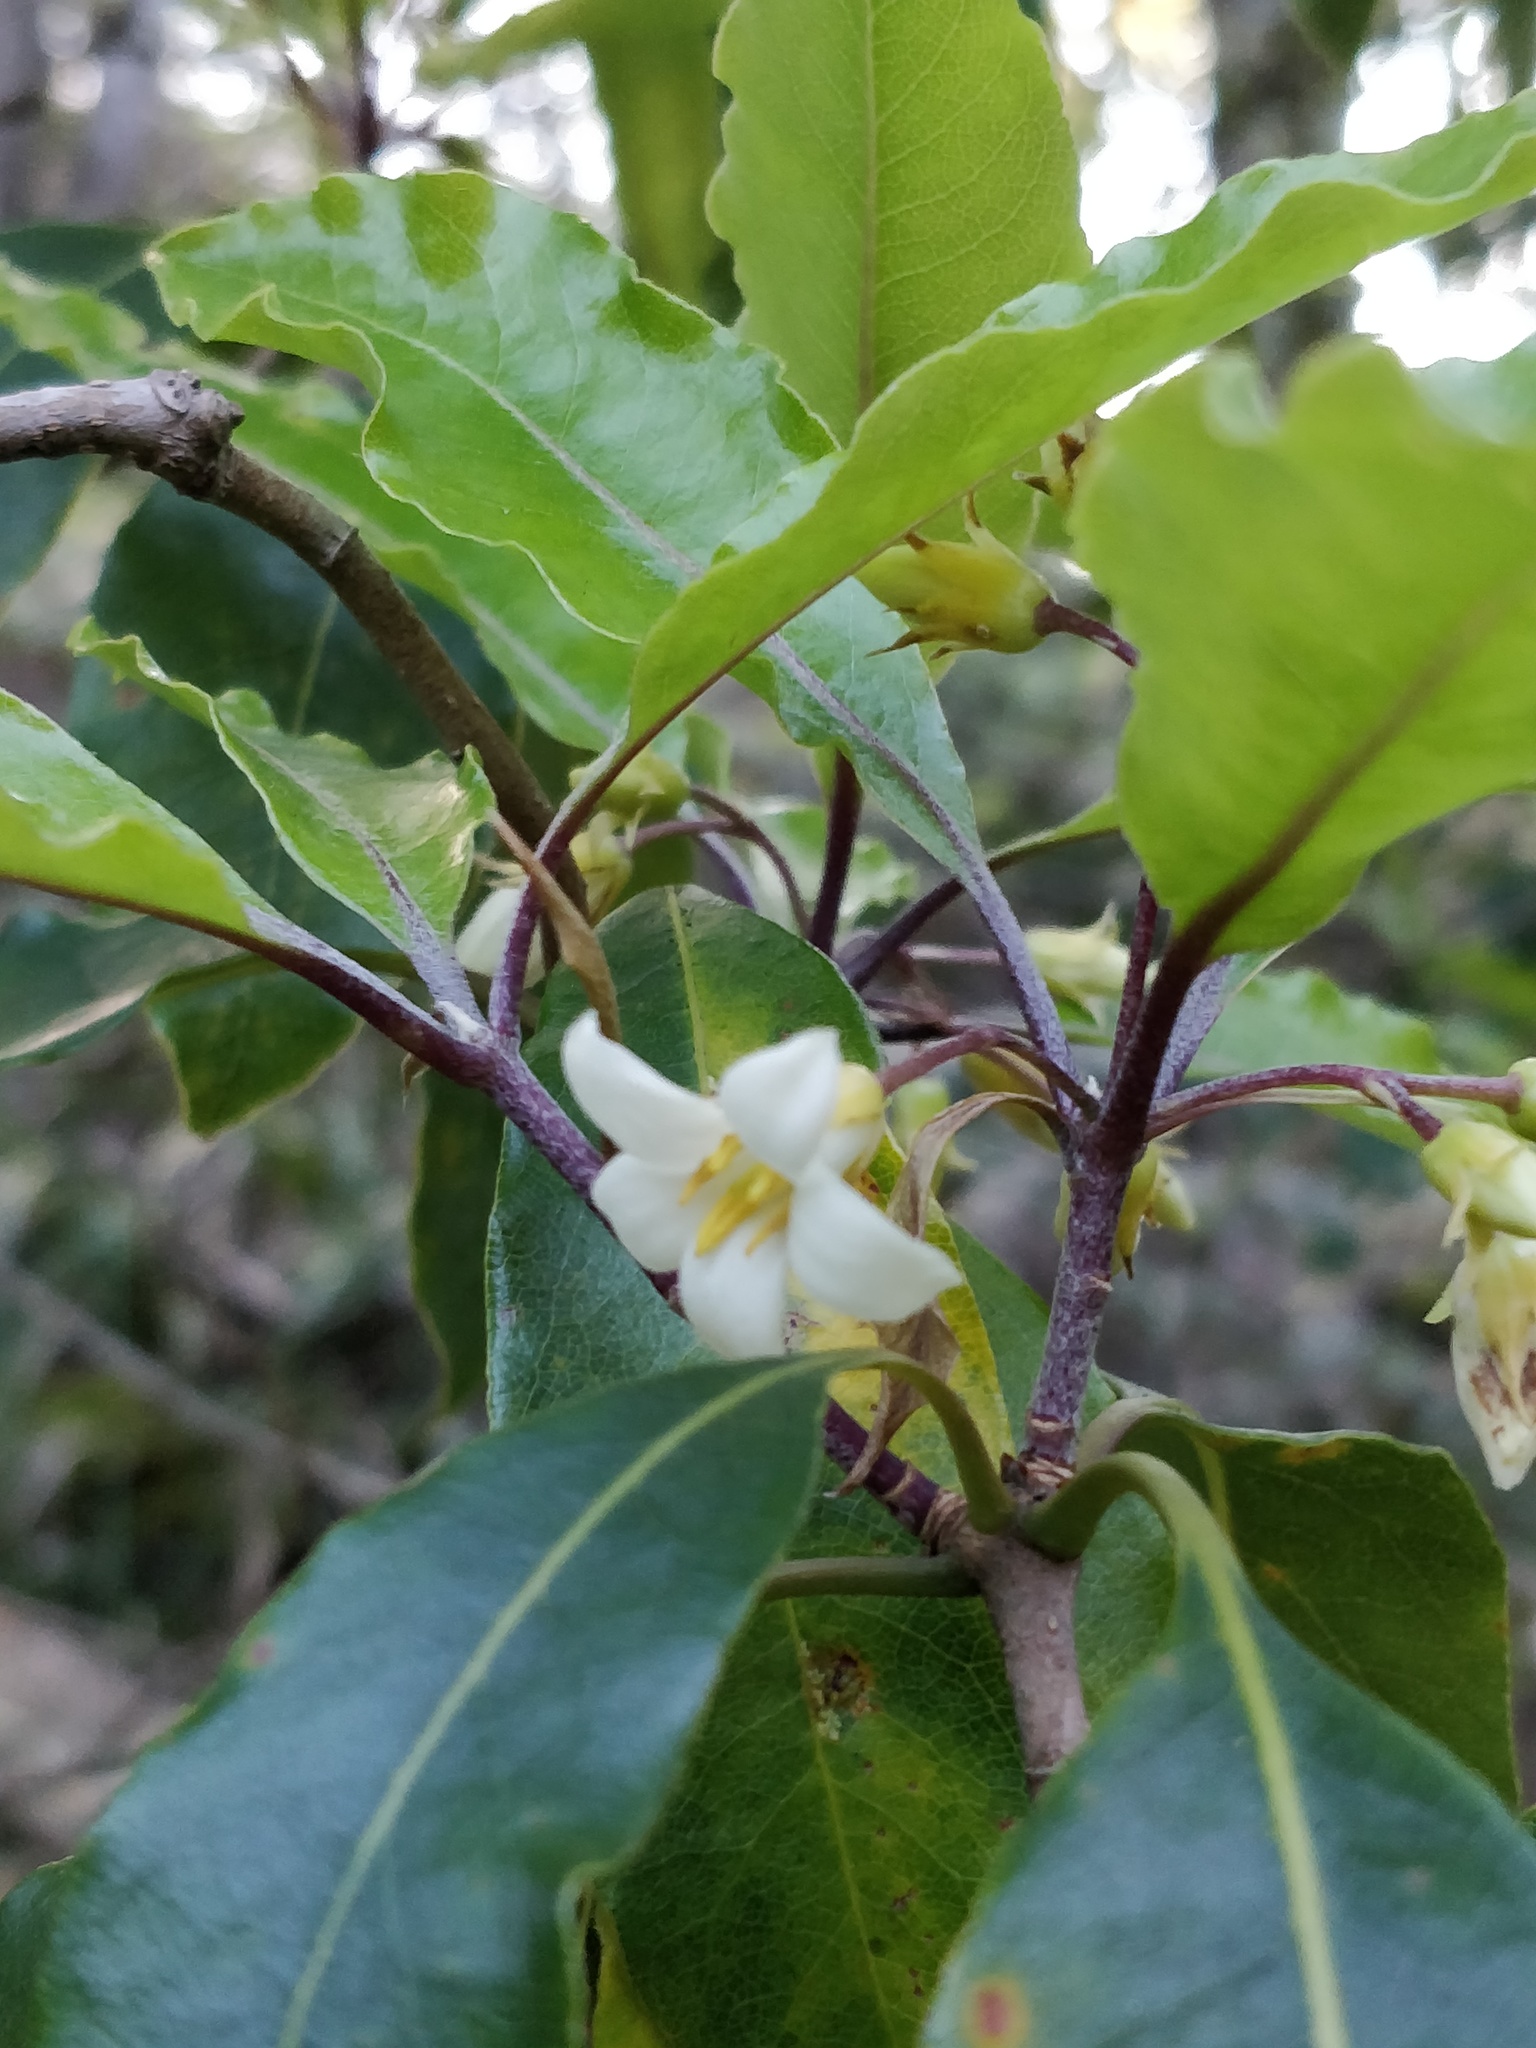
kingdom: Plantae
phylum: Tracheophyta
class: Magnoliopsida
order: Apiales
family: Pittosporaceae
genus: Pittosporum
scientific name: Pittosporum undulatum
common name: Australian cheesewood
